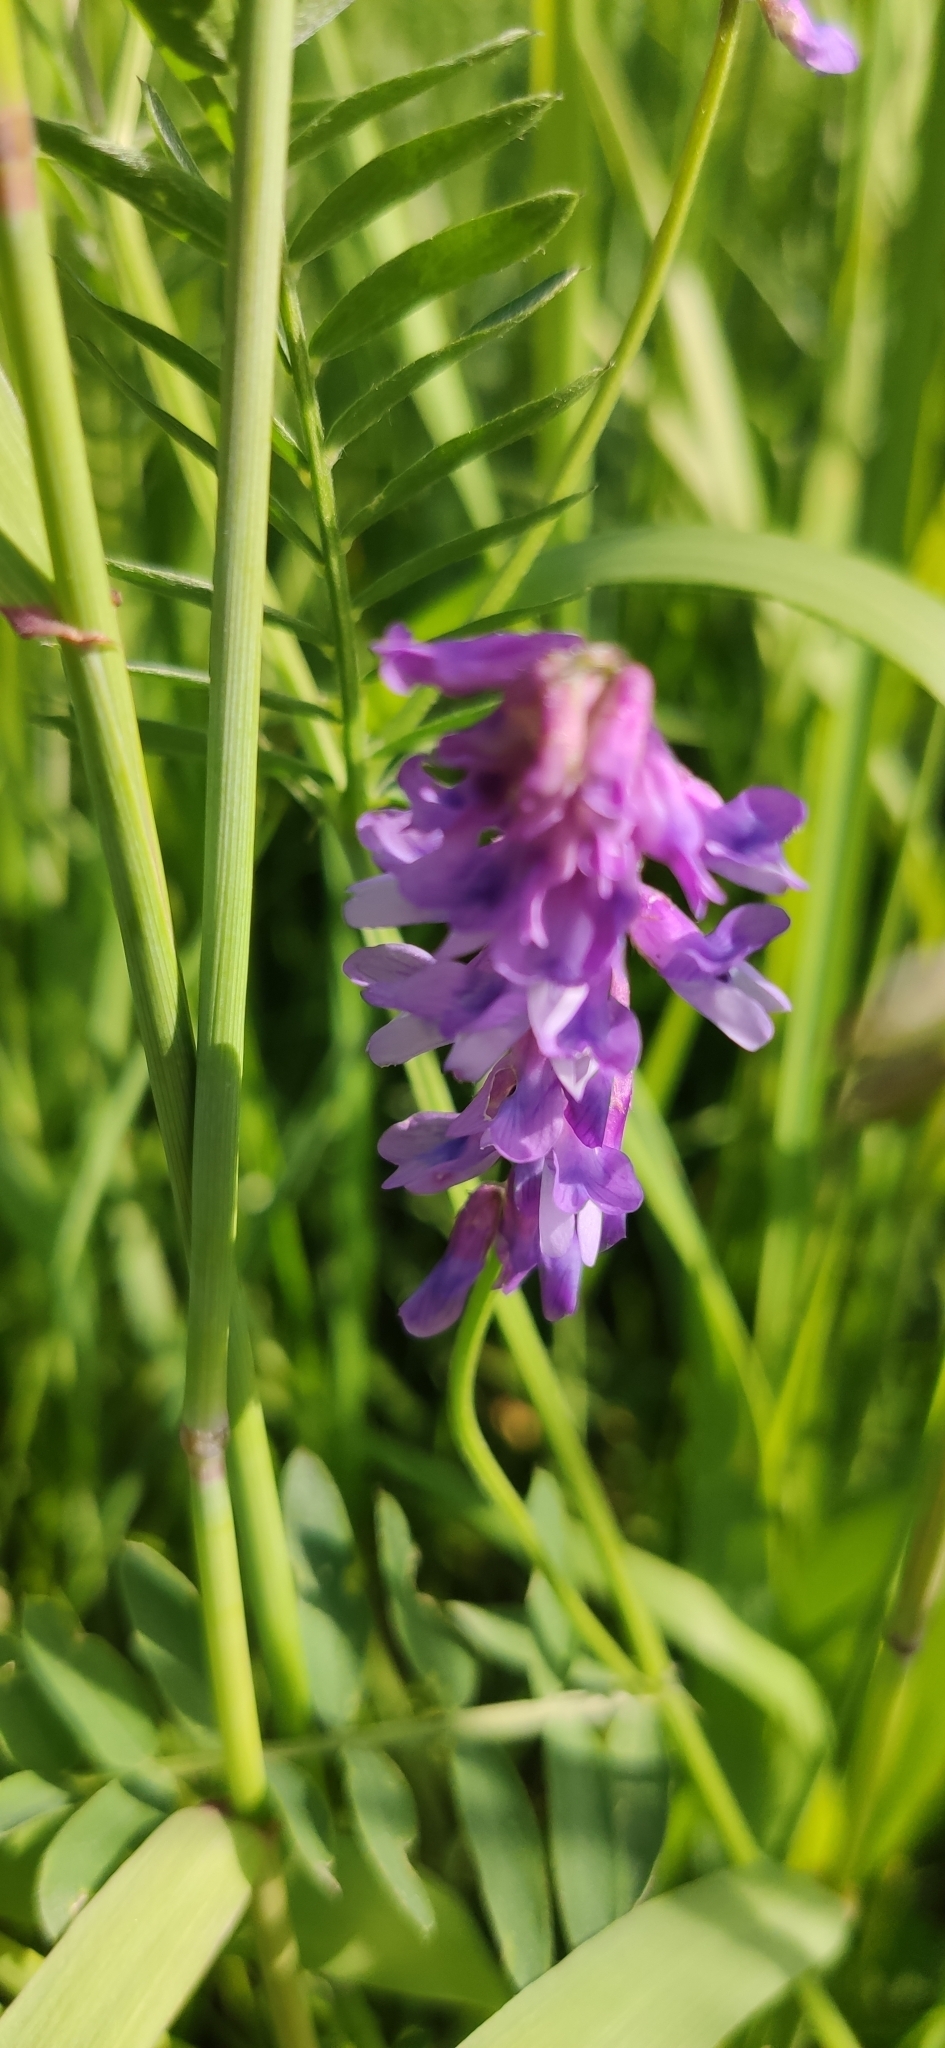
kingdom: Plantae
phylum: Tracheophyta
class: Magnoliopsida
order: Fabales
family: Fabaceae
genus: Vicia
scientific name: Vicia cracca
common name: Bird vetch
